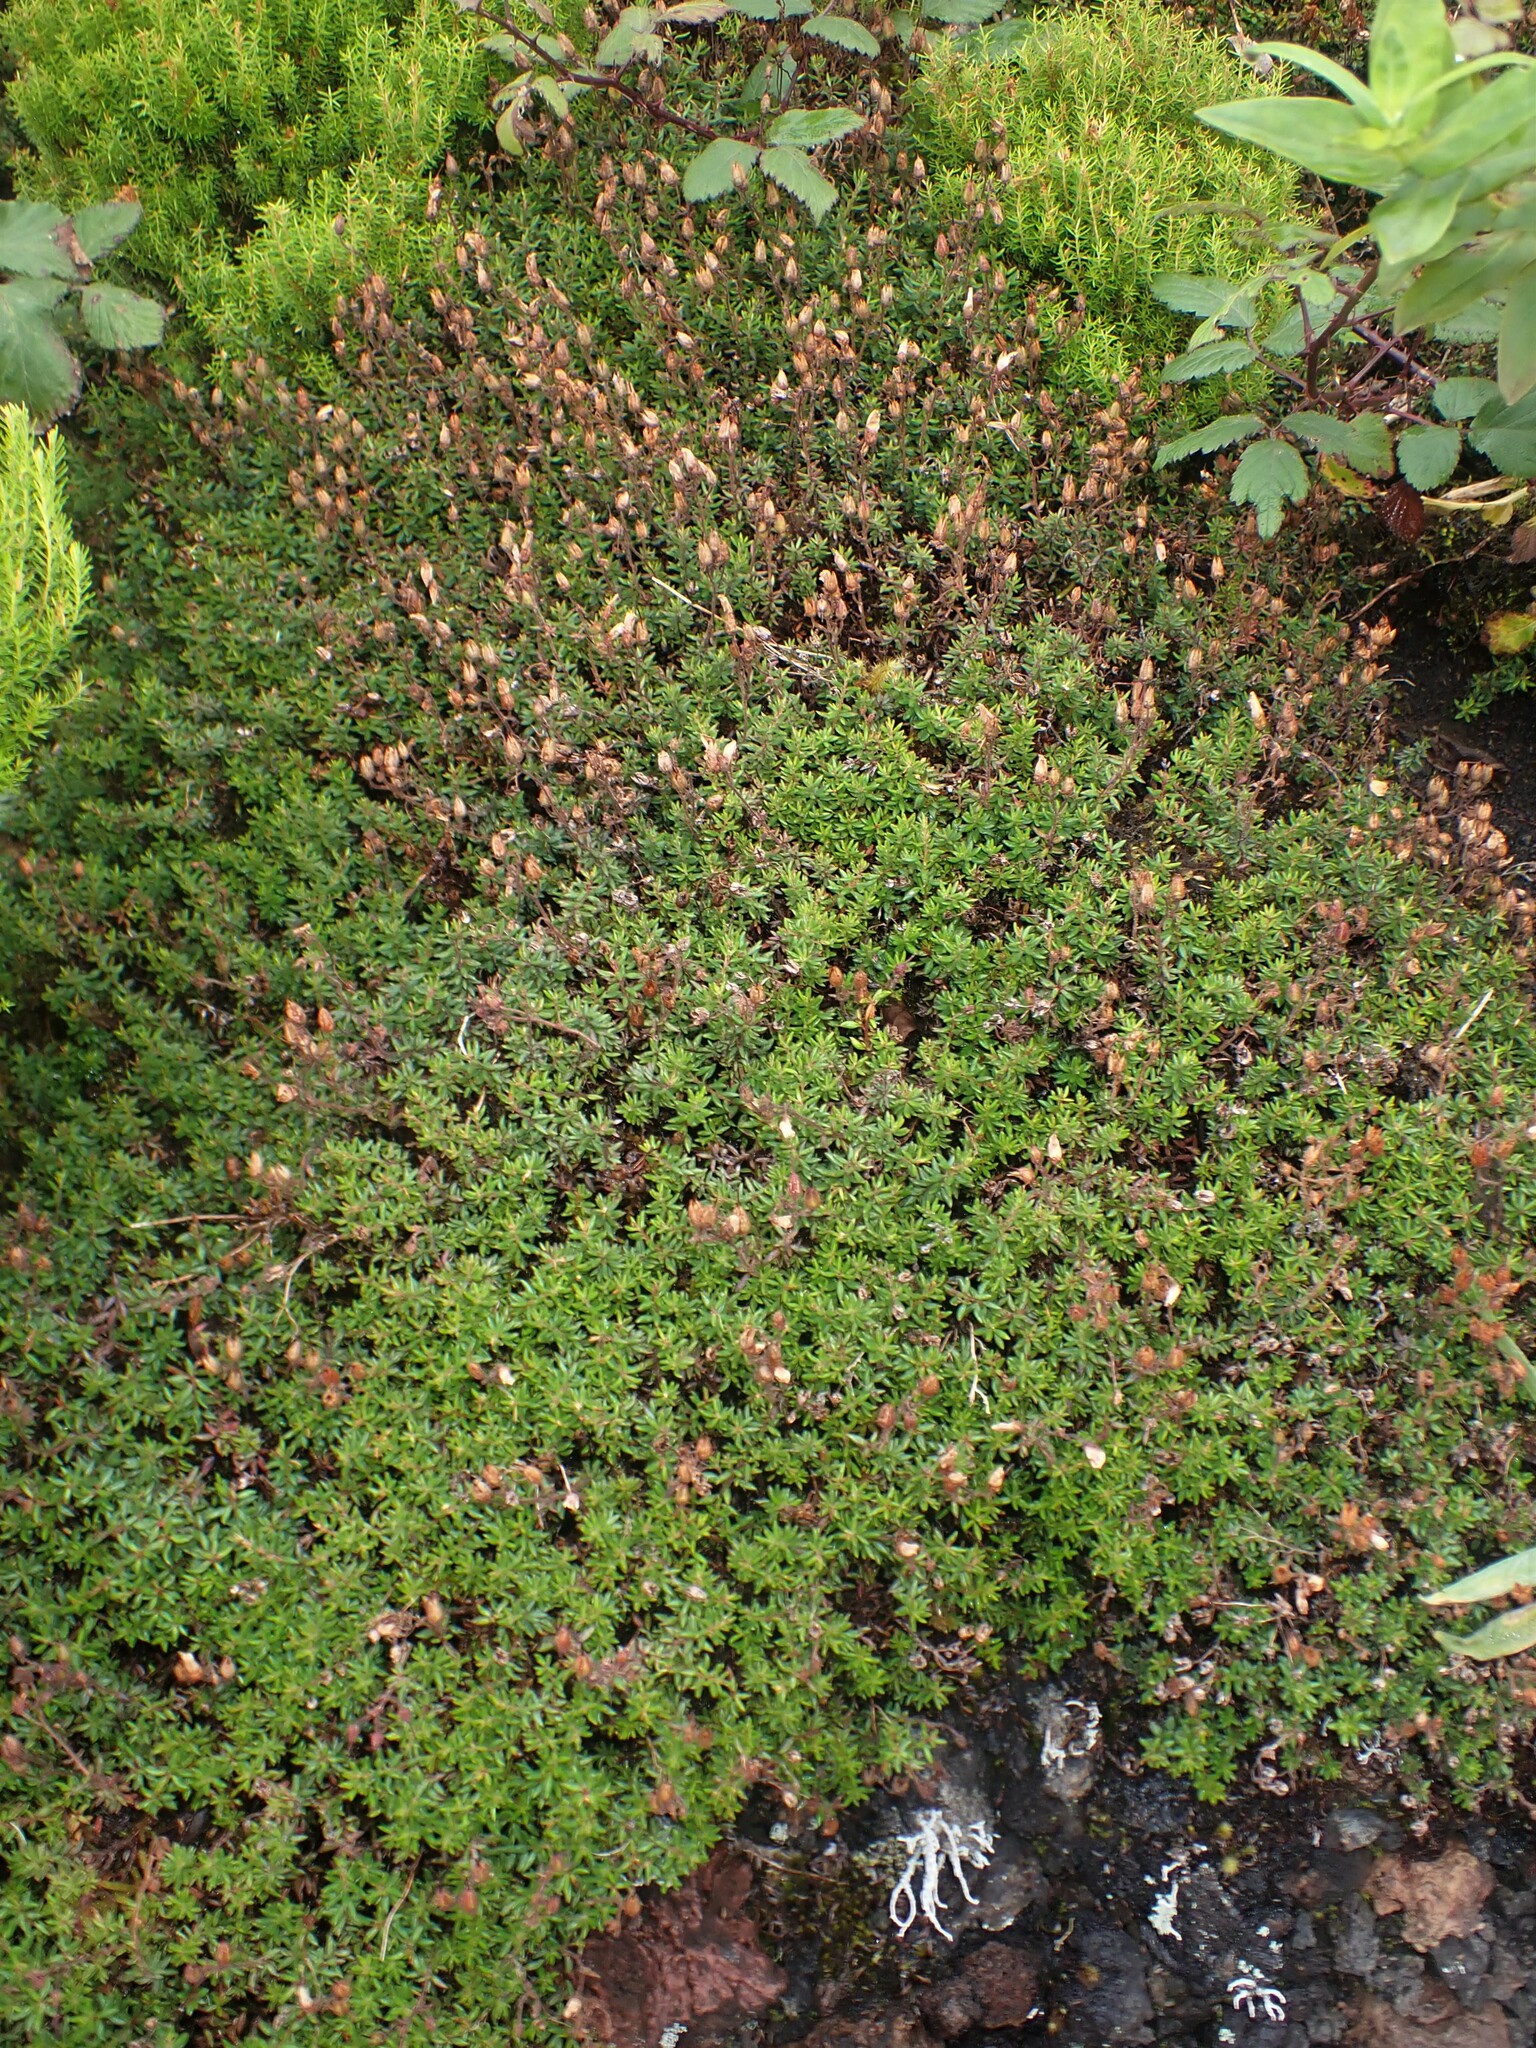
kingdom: Plantae
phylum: Tracheophyta
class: Magnoliopsida
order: Ericales
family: Ericaceae
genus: Daboecia
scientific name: Daboecia cantabrica
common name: St. dabeoc's-heath
